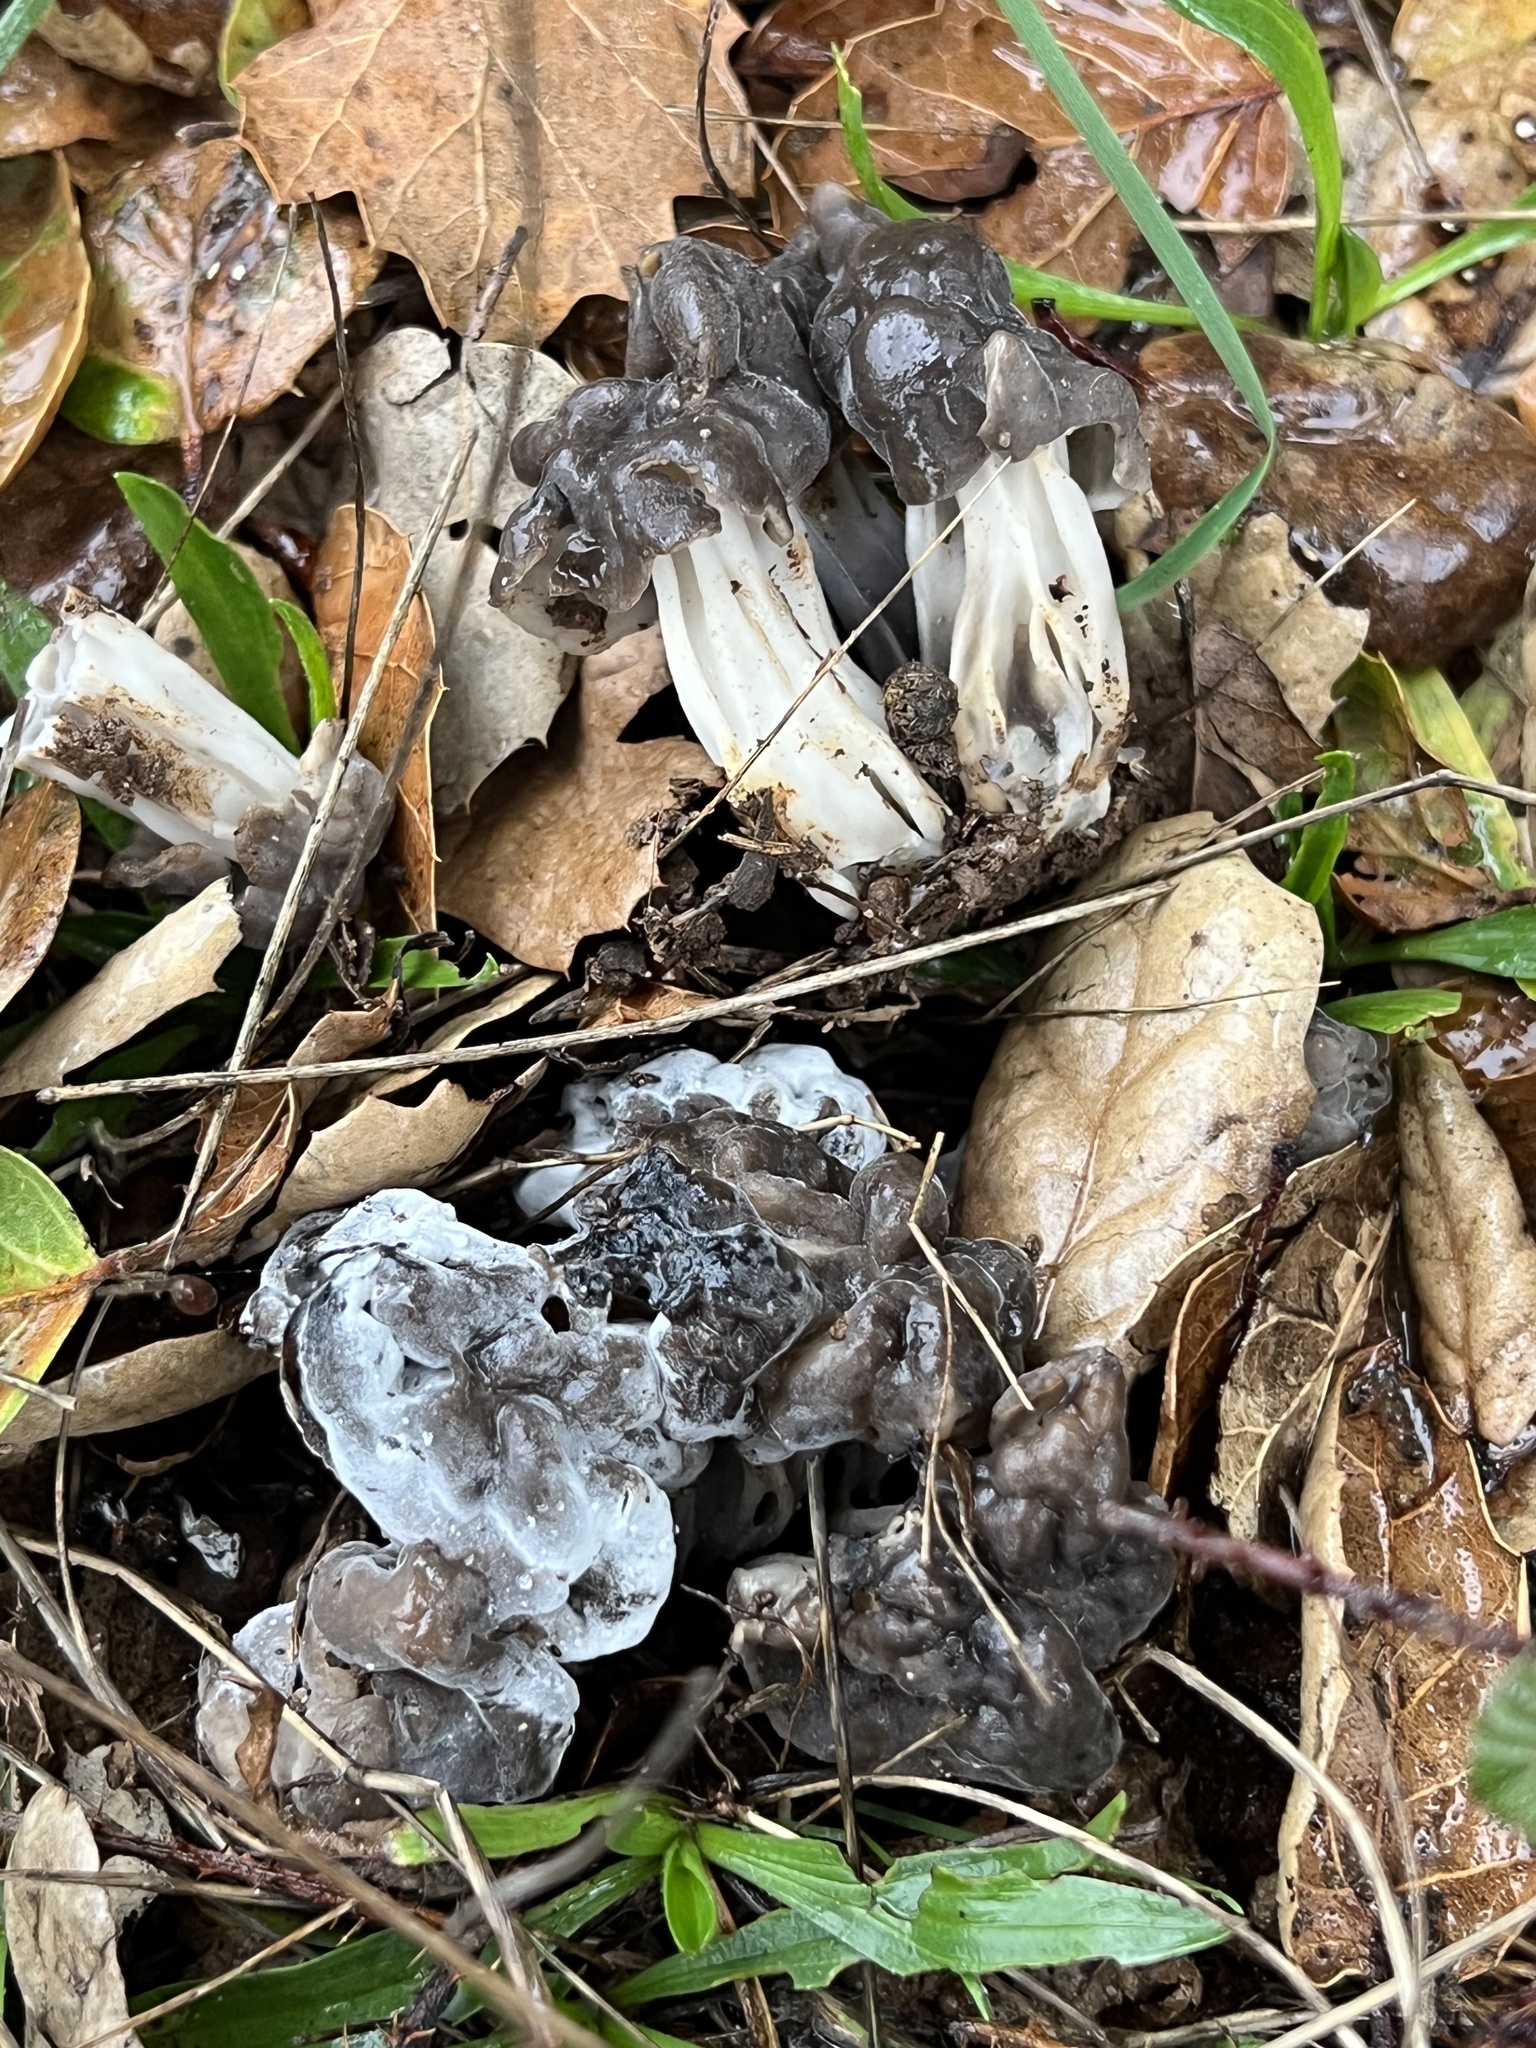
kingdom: Fungi
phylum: Ascomycota
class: Sordariomycetes
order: Hypocreales
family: Hypocreaceae
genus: Hypomyces
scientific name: Hypomyces cervinus
